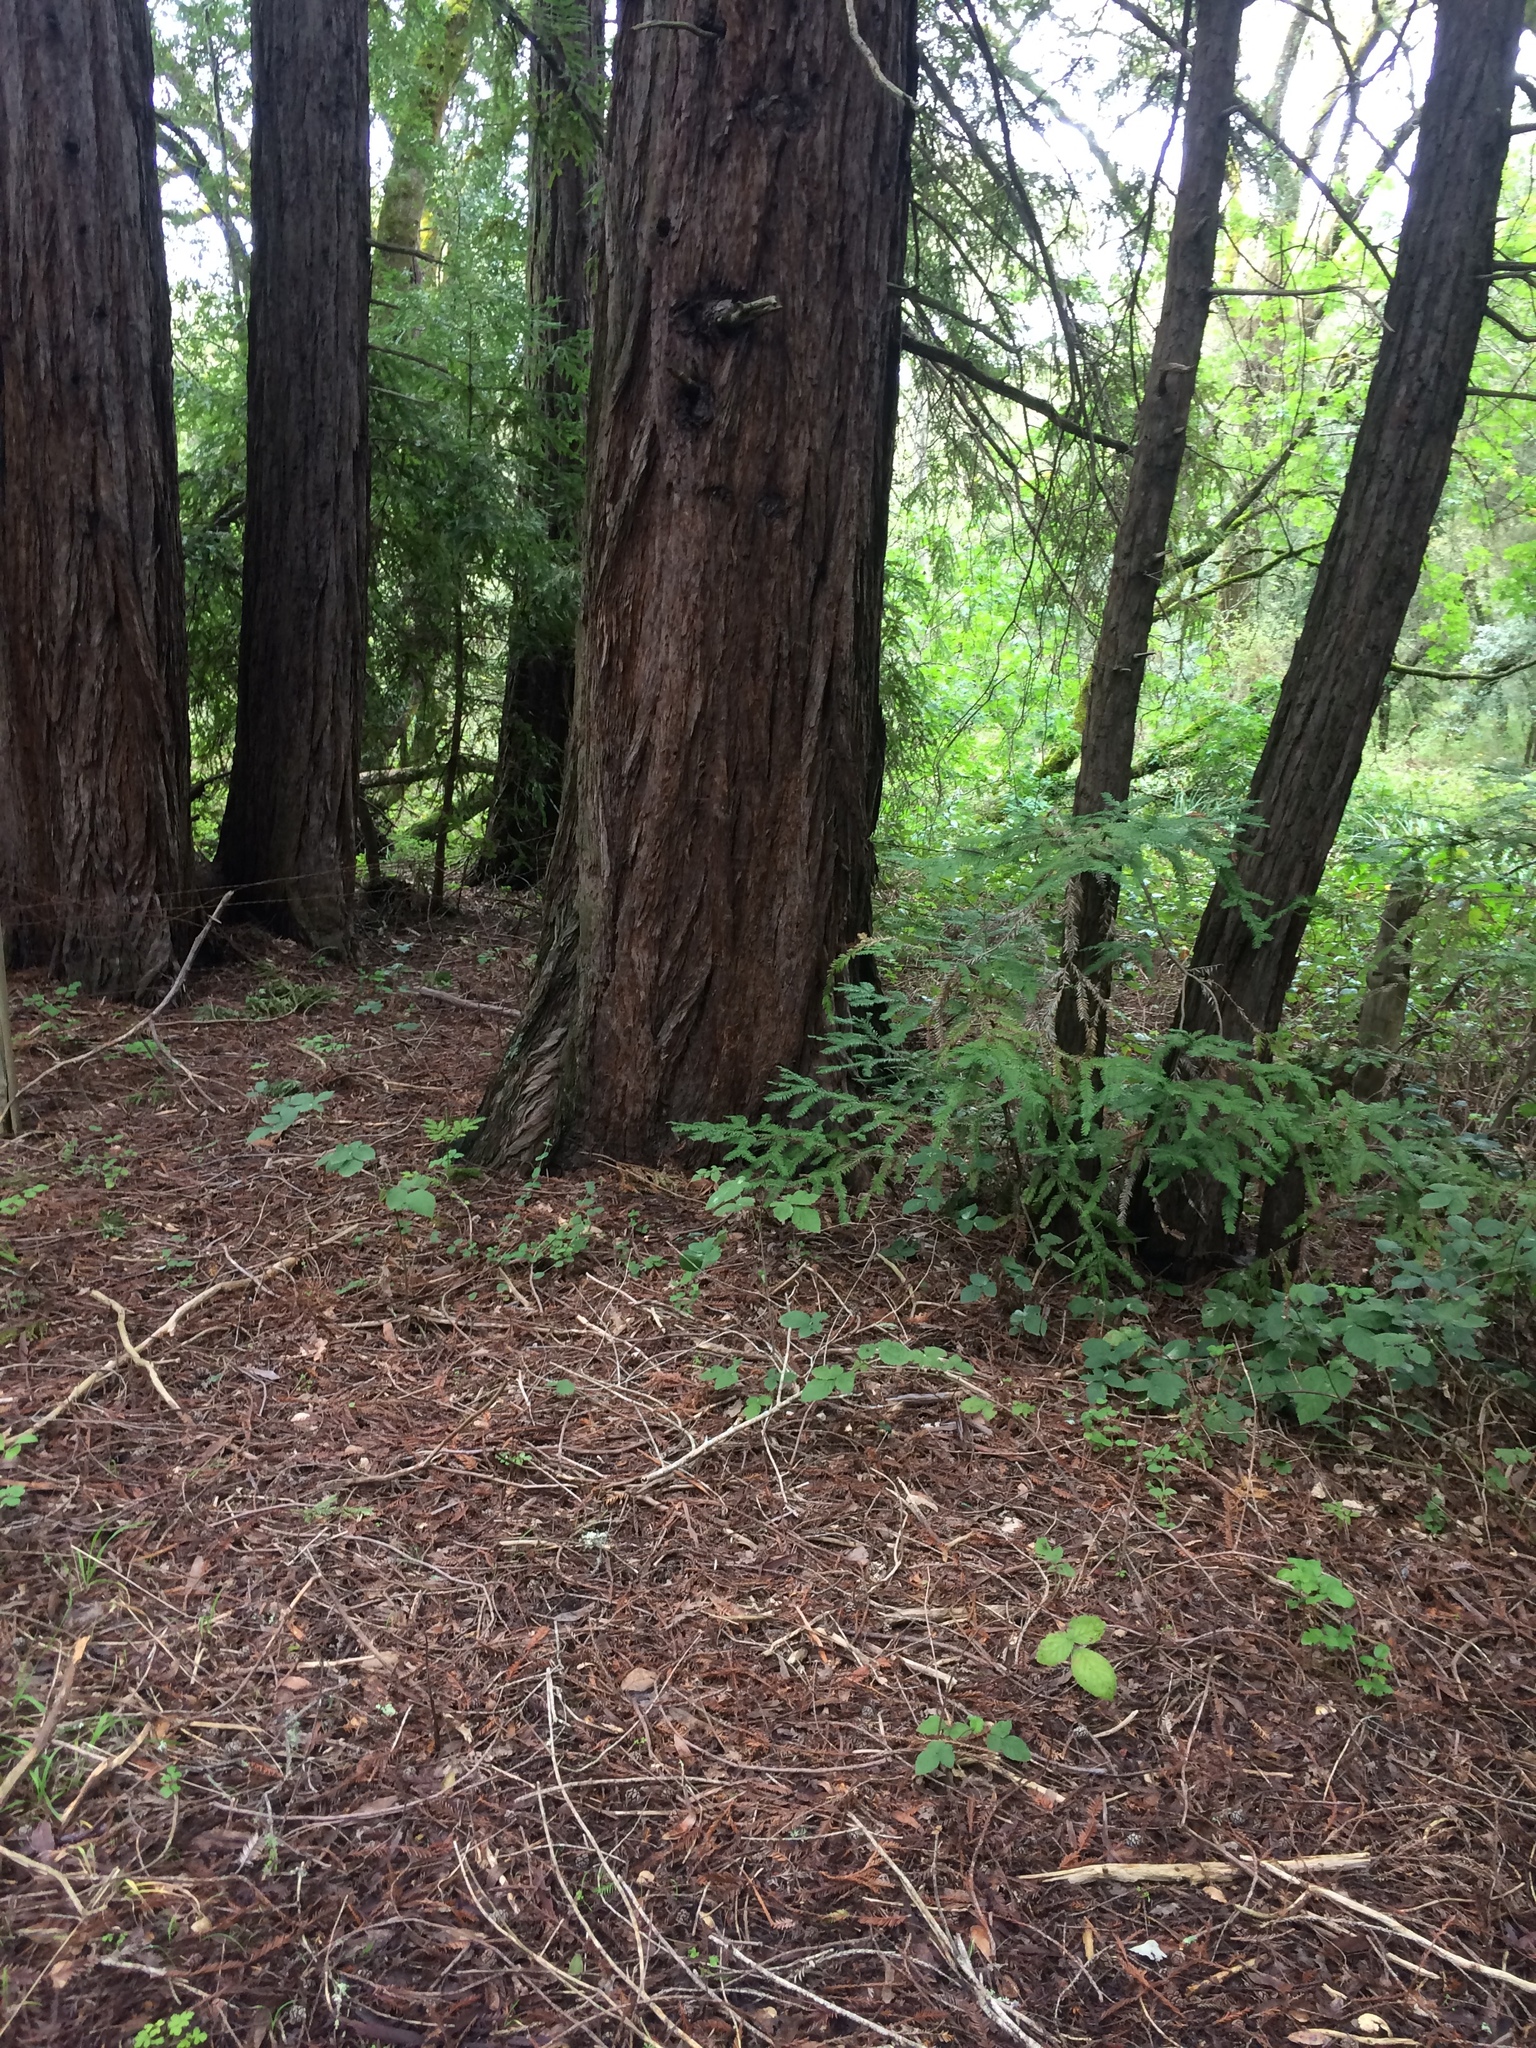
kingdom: Plantae
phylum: Tracheophyta
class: Pinopsida
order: Pinales
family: Cupressaceae
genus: Sequoia
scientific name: Sequoia sempervirens
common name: Coast redwood
